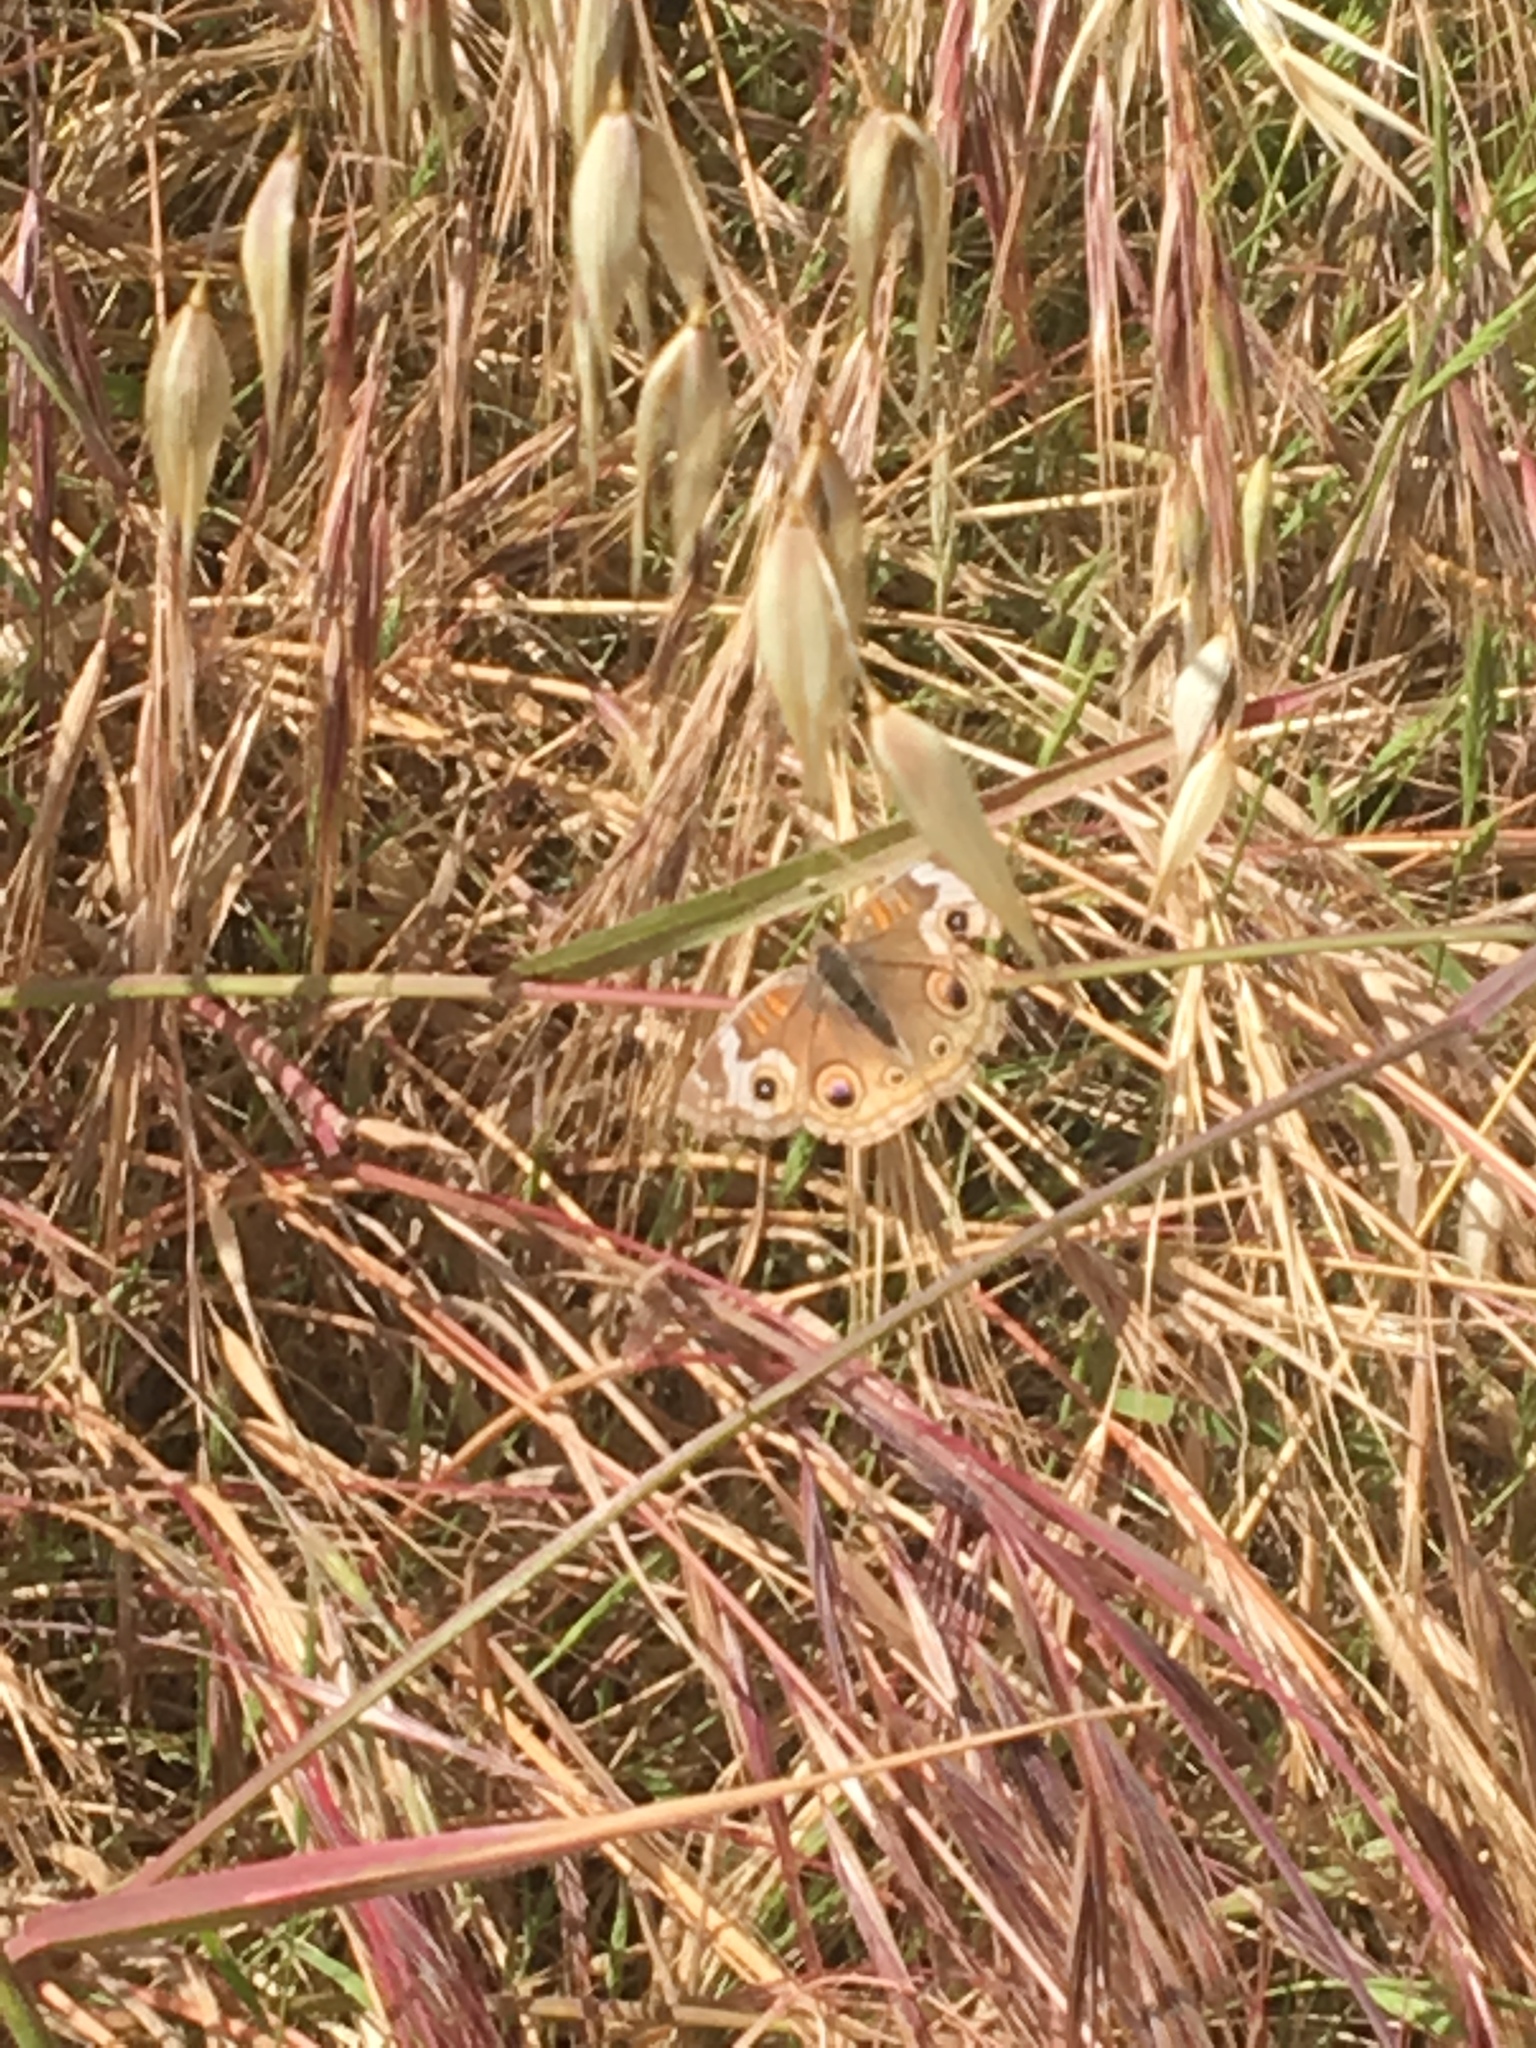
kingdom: Animalia
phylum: Arthropoda
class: Insecta
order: Lepidoptera
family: Nymphalidae
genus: Junonia
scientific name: Junonia grisea
